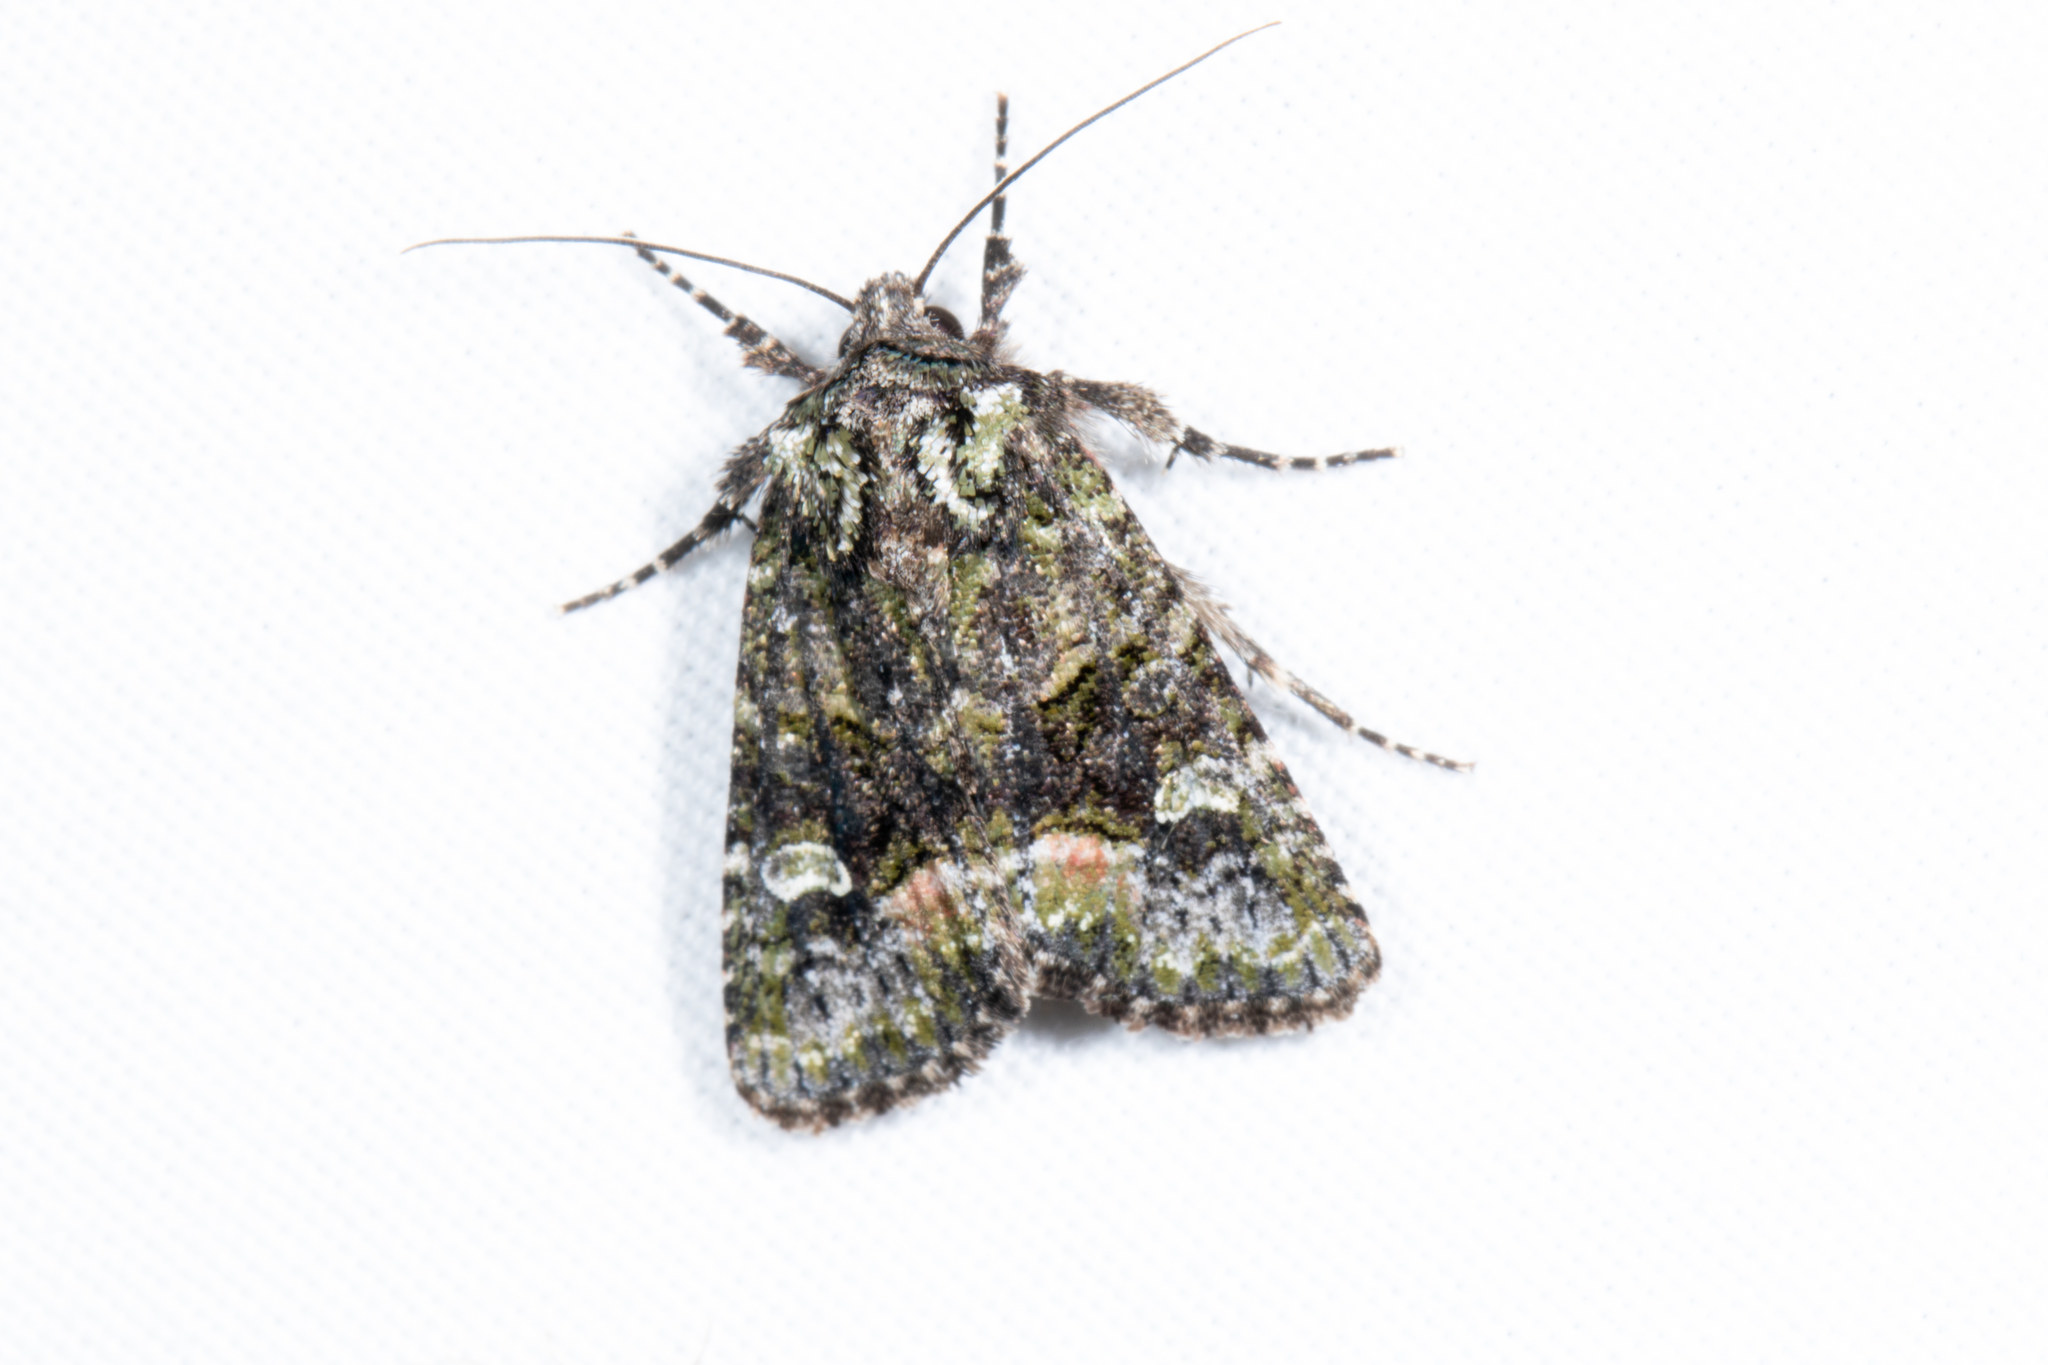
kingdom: Animalia
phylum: Arthropoda
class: Insecta
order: Lepidoptera
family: Noctuidae
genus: Anaplectoides
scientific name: Anaplectoides prasina
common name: Green arches
